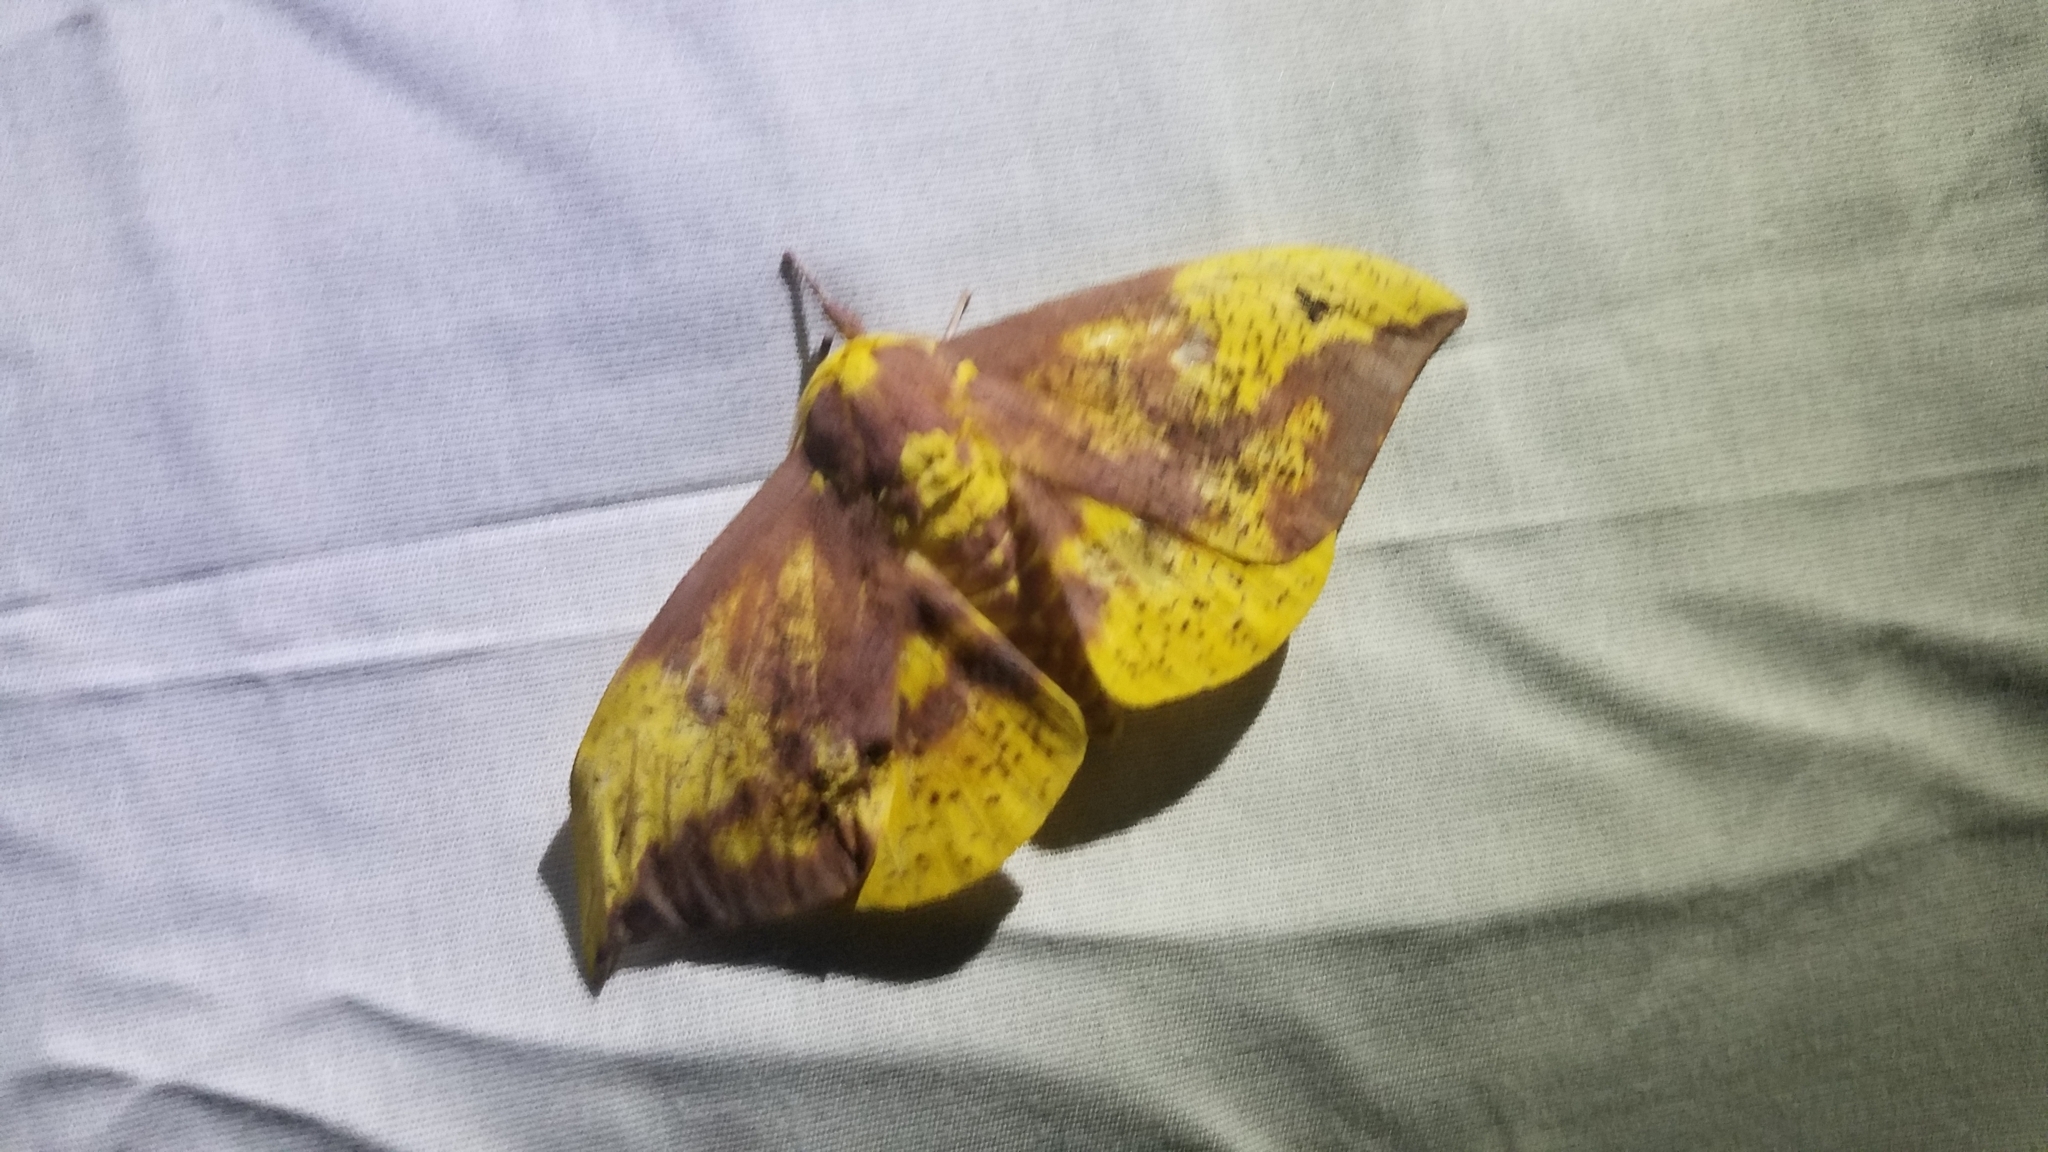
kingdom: Animalia
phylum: Arthropoda
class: Insecta
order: Lepidoptera
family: Saturniidae
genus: Eacles
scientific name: Eacles imperialis
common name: Imperial moth
